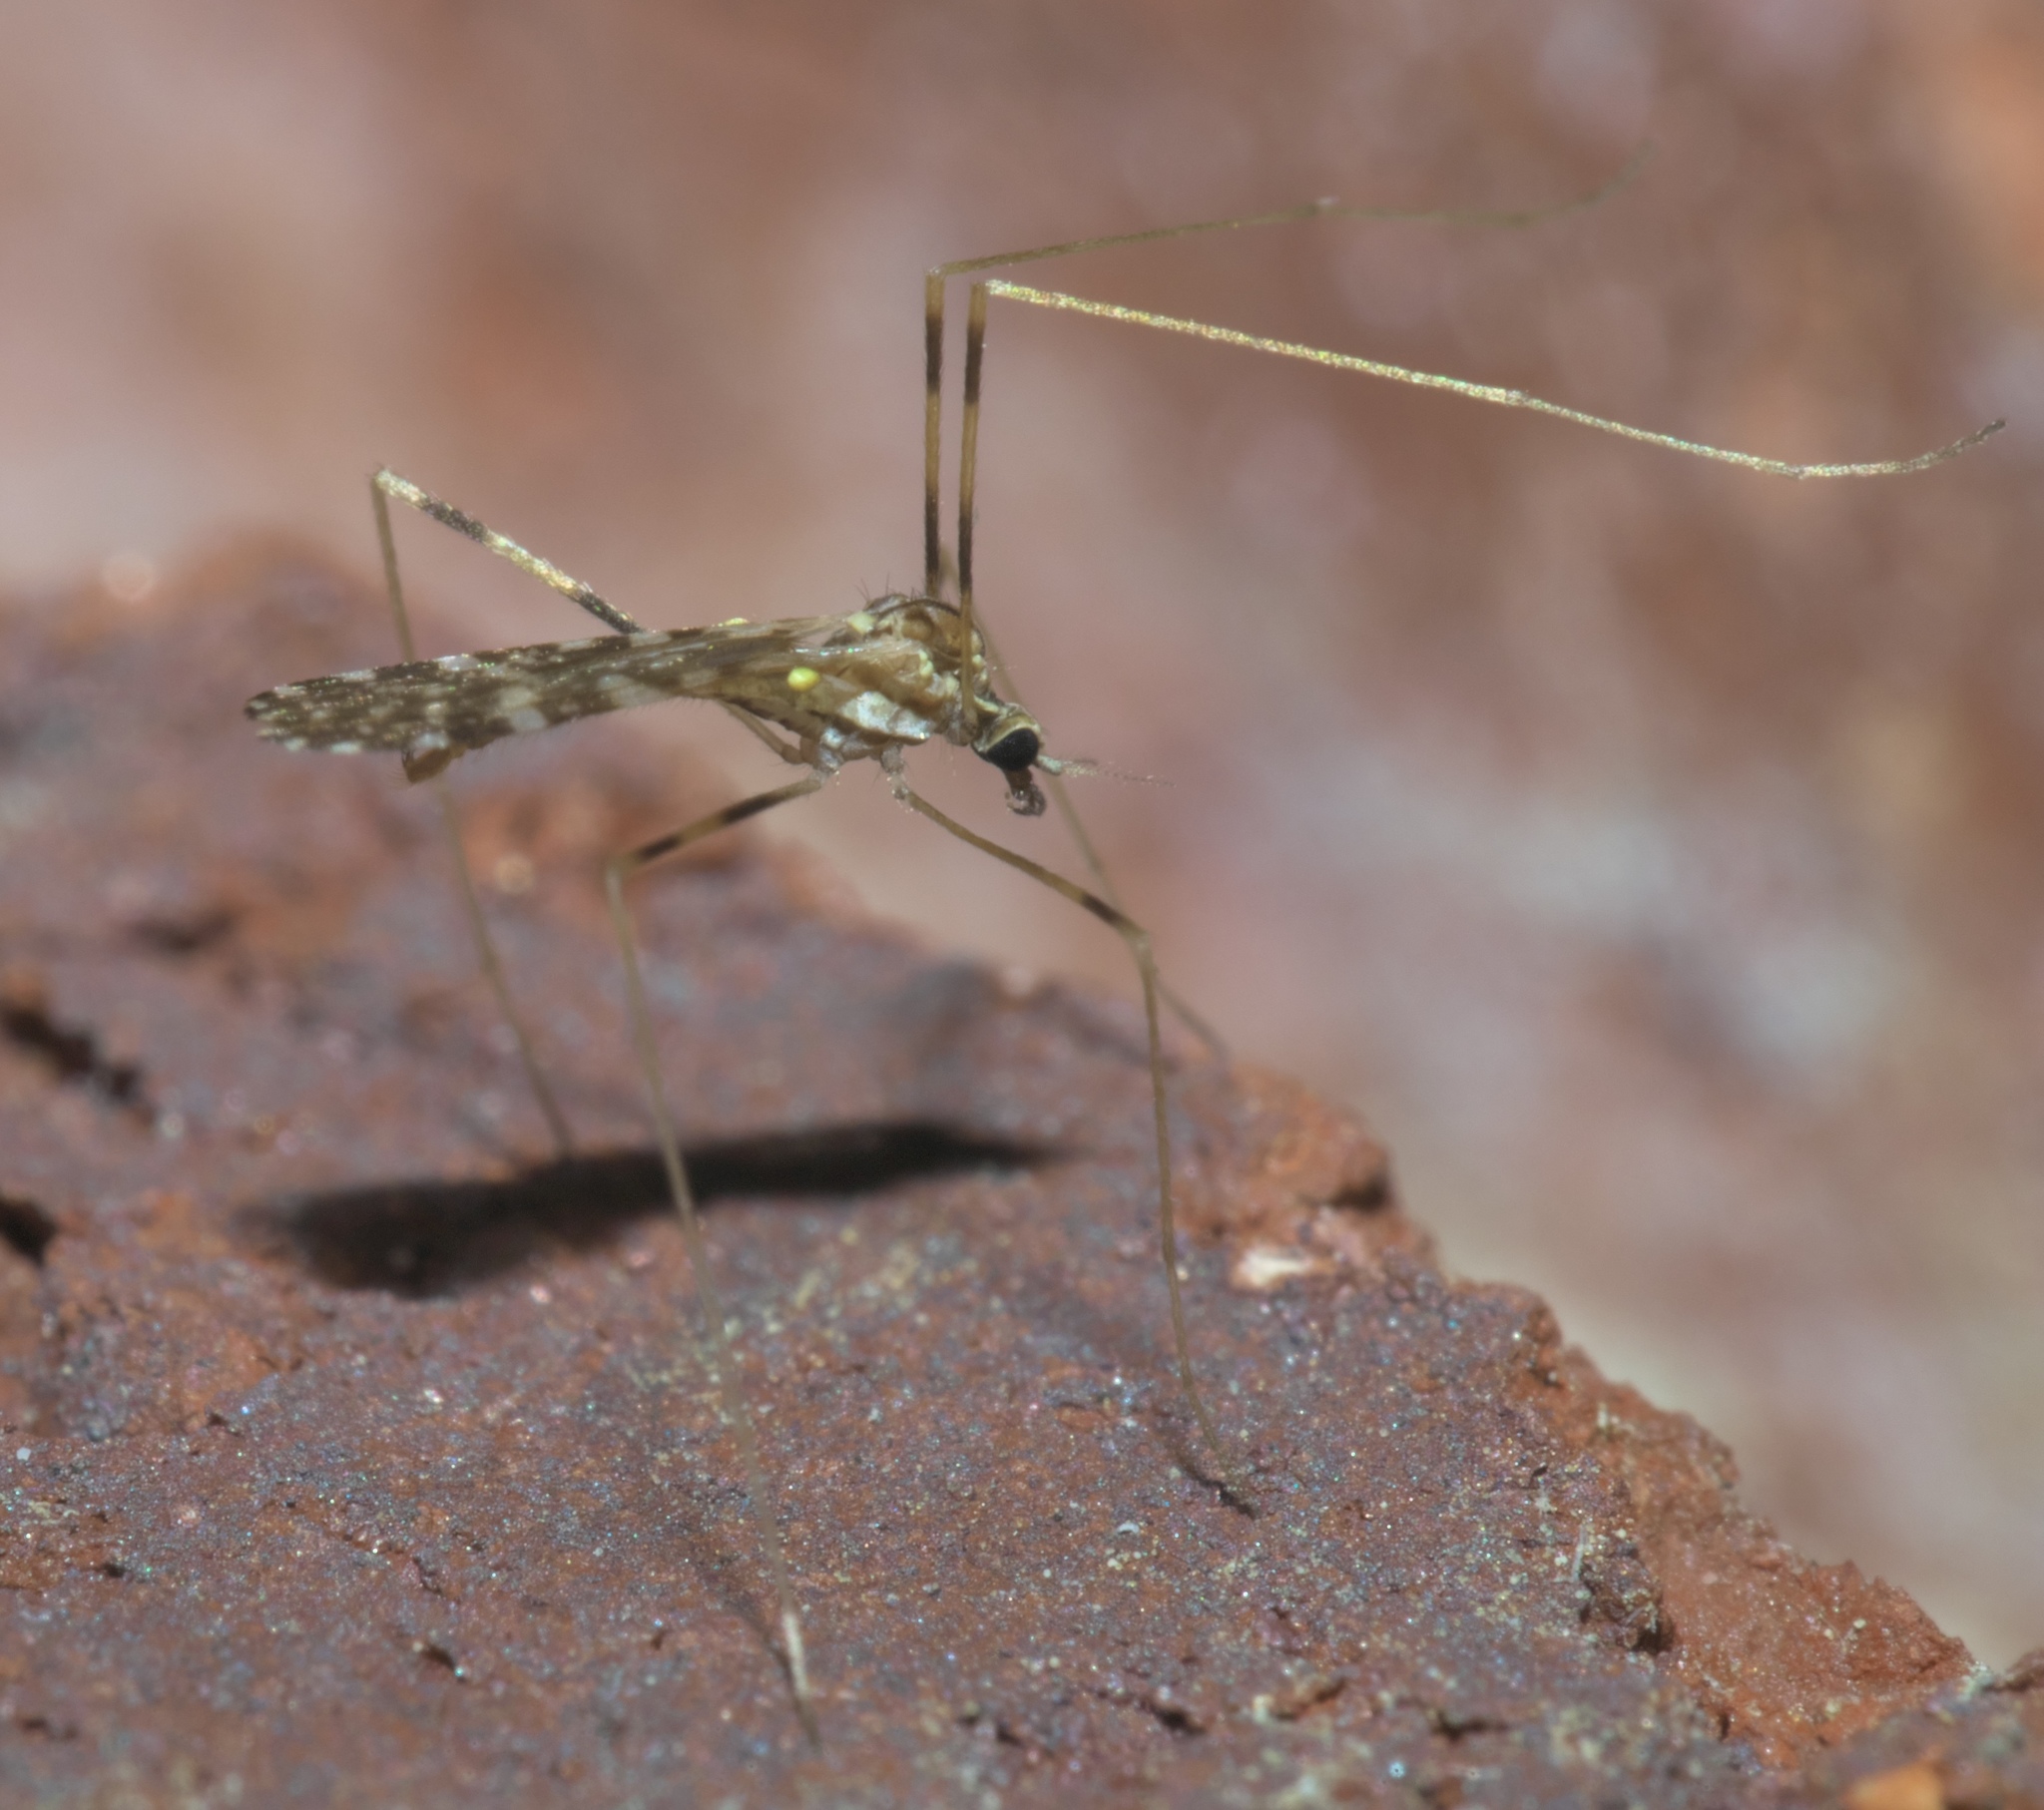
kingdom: Animalia
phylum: Arthropoda
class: Insecta
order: Diptera
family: Limoniidae
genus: Erioptera
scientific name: Erioptera caliptera
